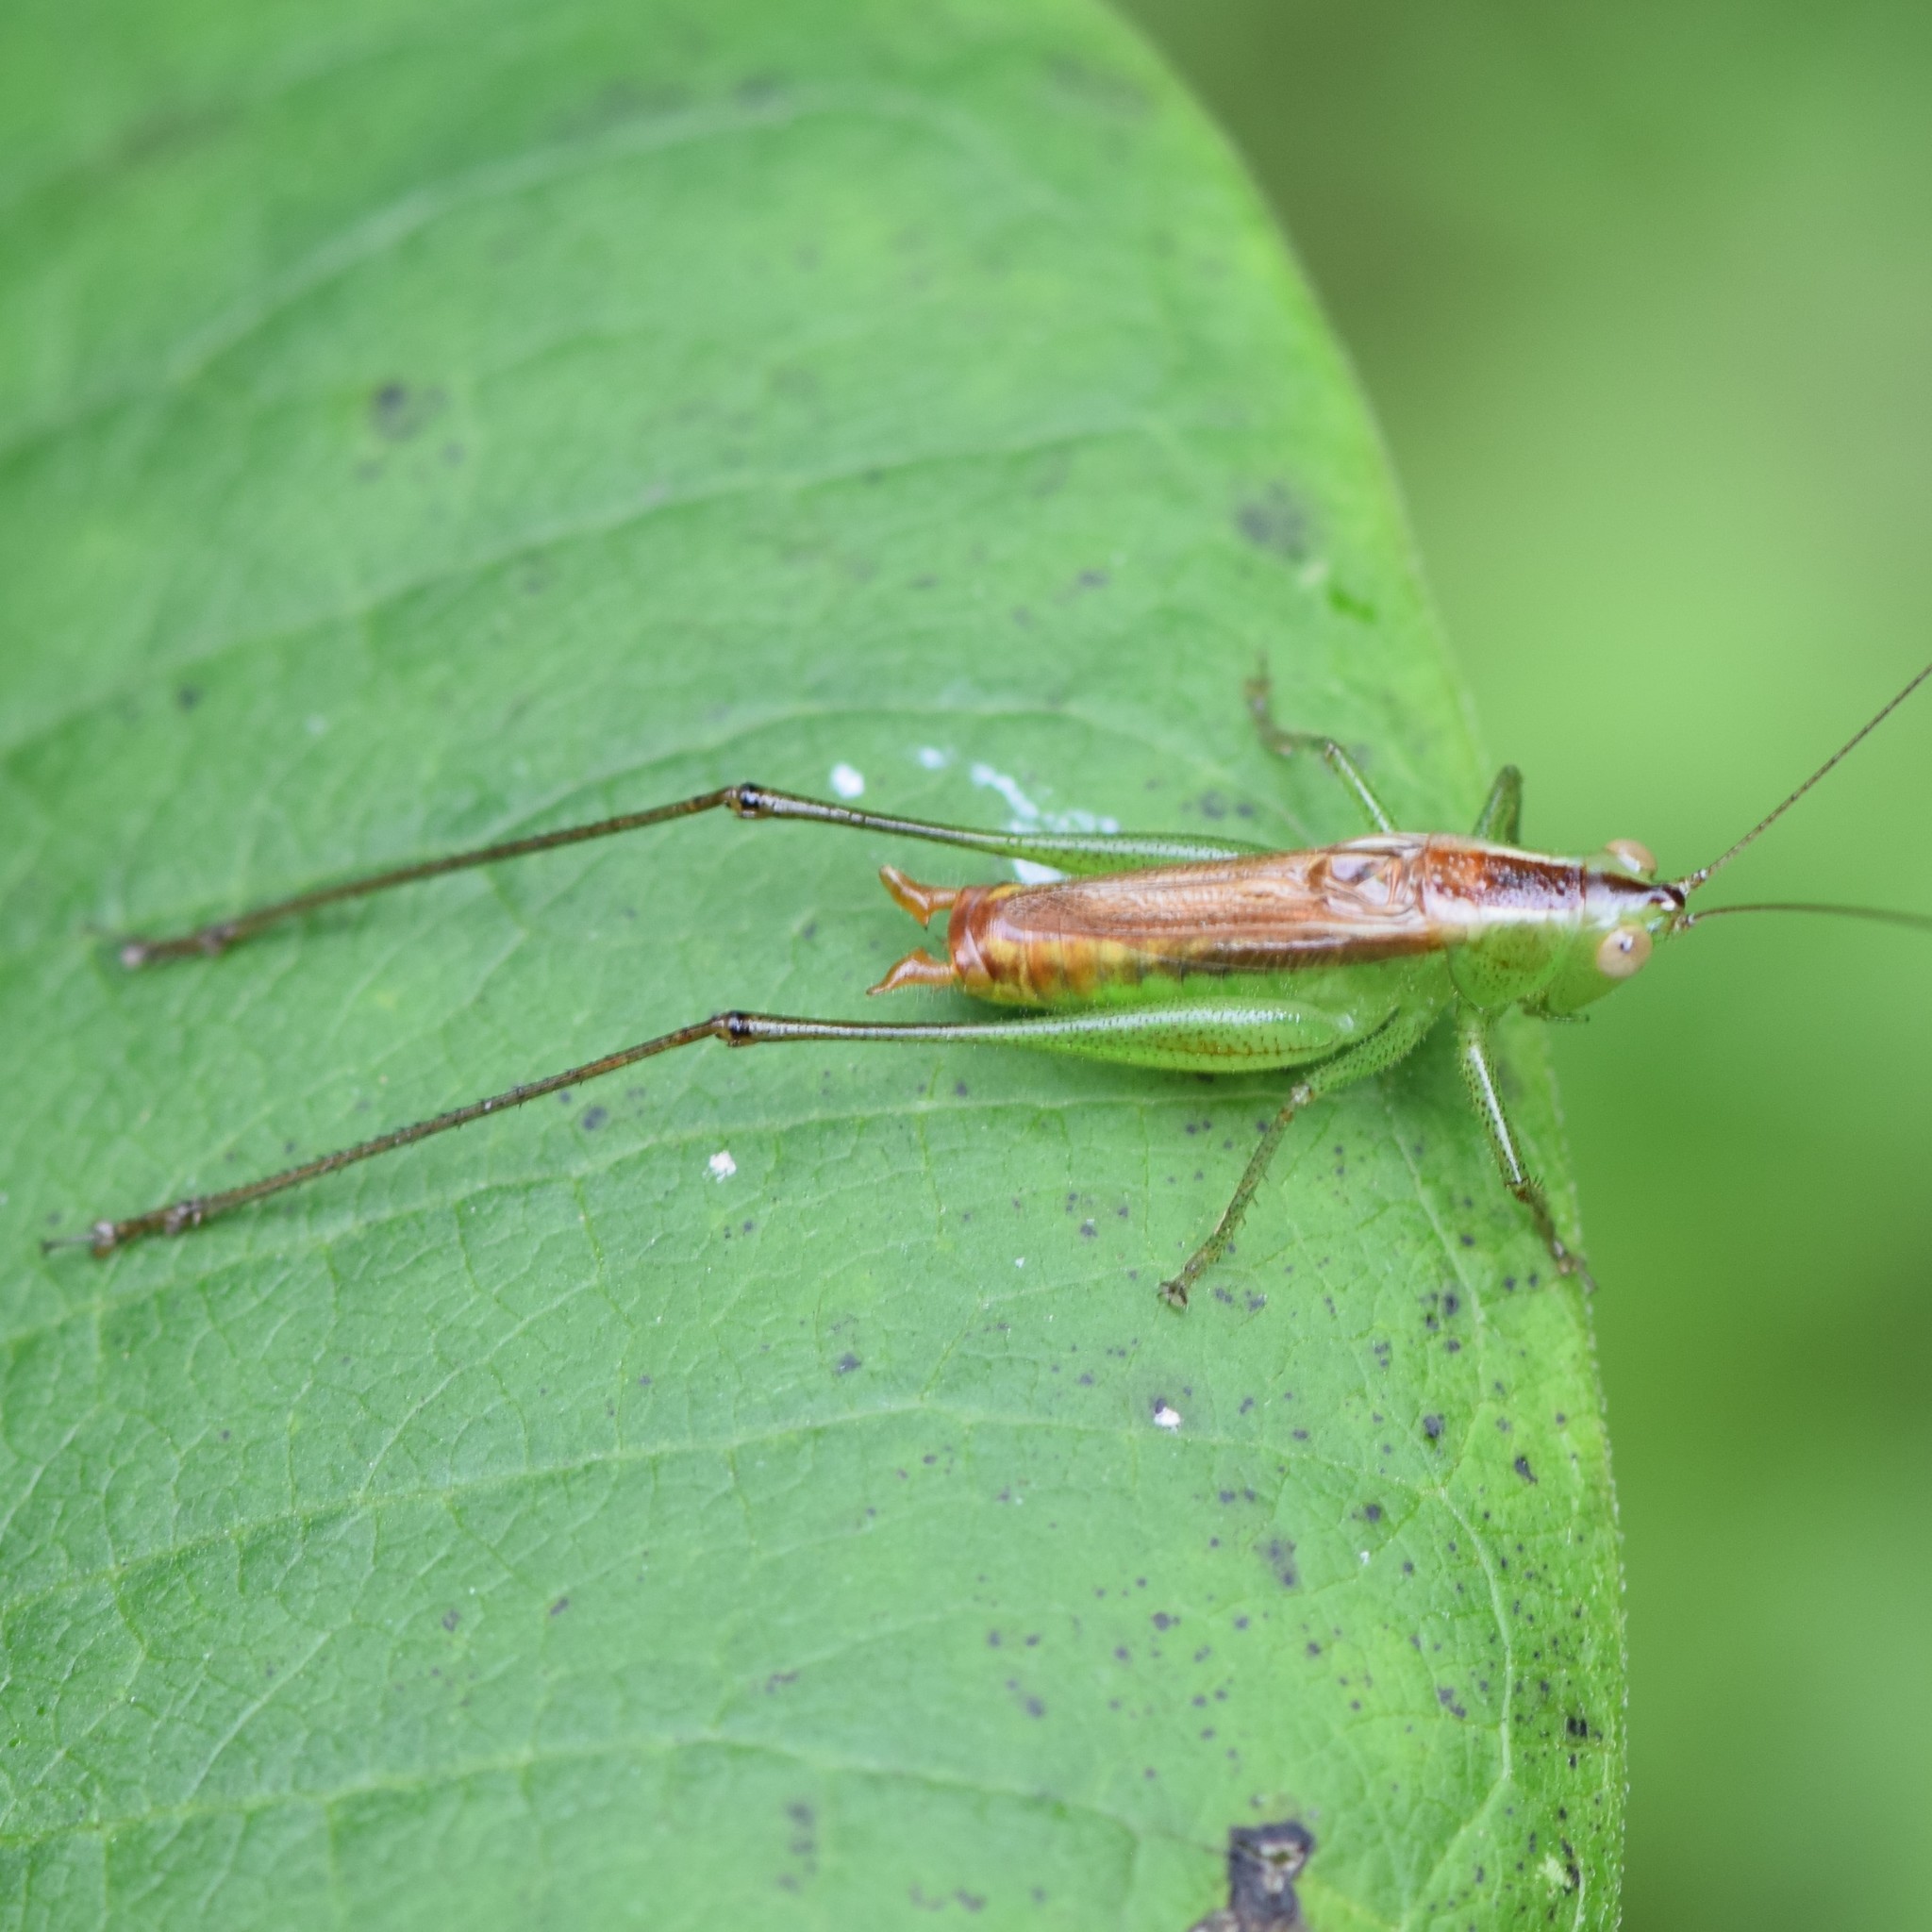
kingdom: Animalia
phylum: Arthropoda
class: Insecta
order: Orthoptera
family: Tettigoniidae
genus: Conocephalus
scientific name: Conocephalus brevipennis
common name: Short-winged meadow katydid
